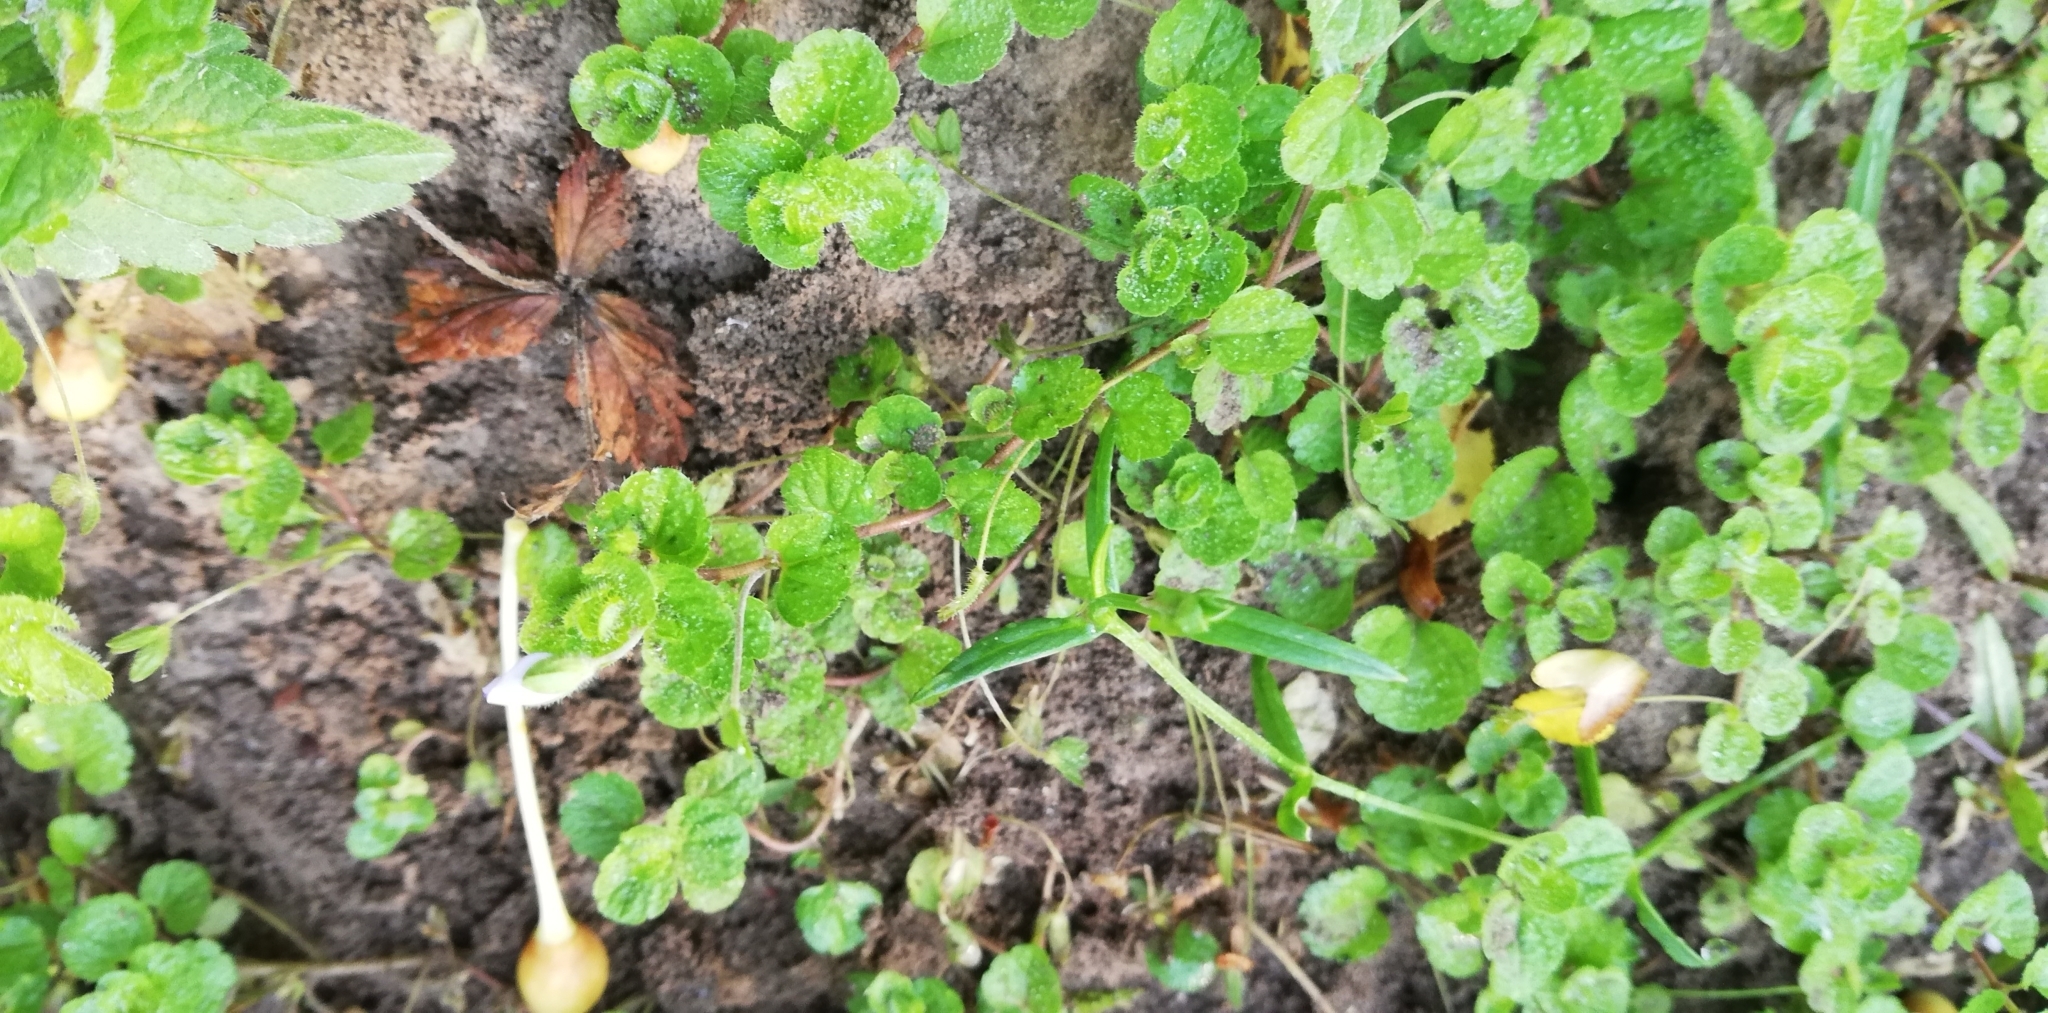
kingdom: Plantae
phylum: Tracheophyta
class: Magnoliopsida
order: Lamiales
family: Plantaginaceae
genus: Veronica
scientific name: Veronica filiformis
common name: Slender speedwell
